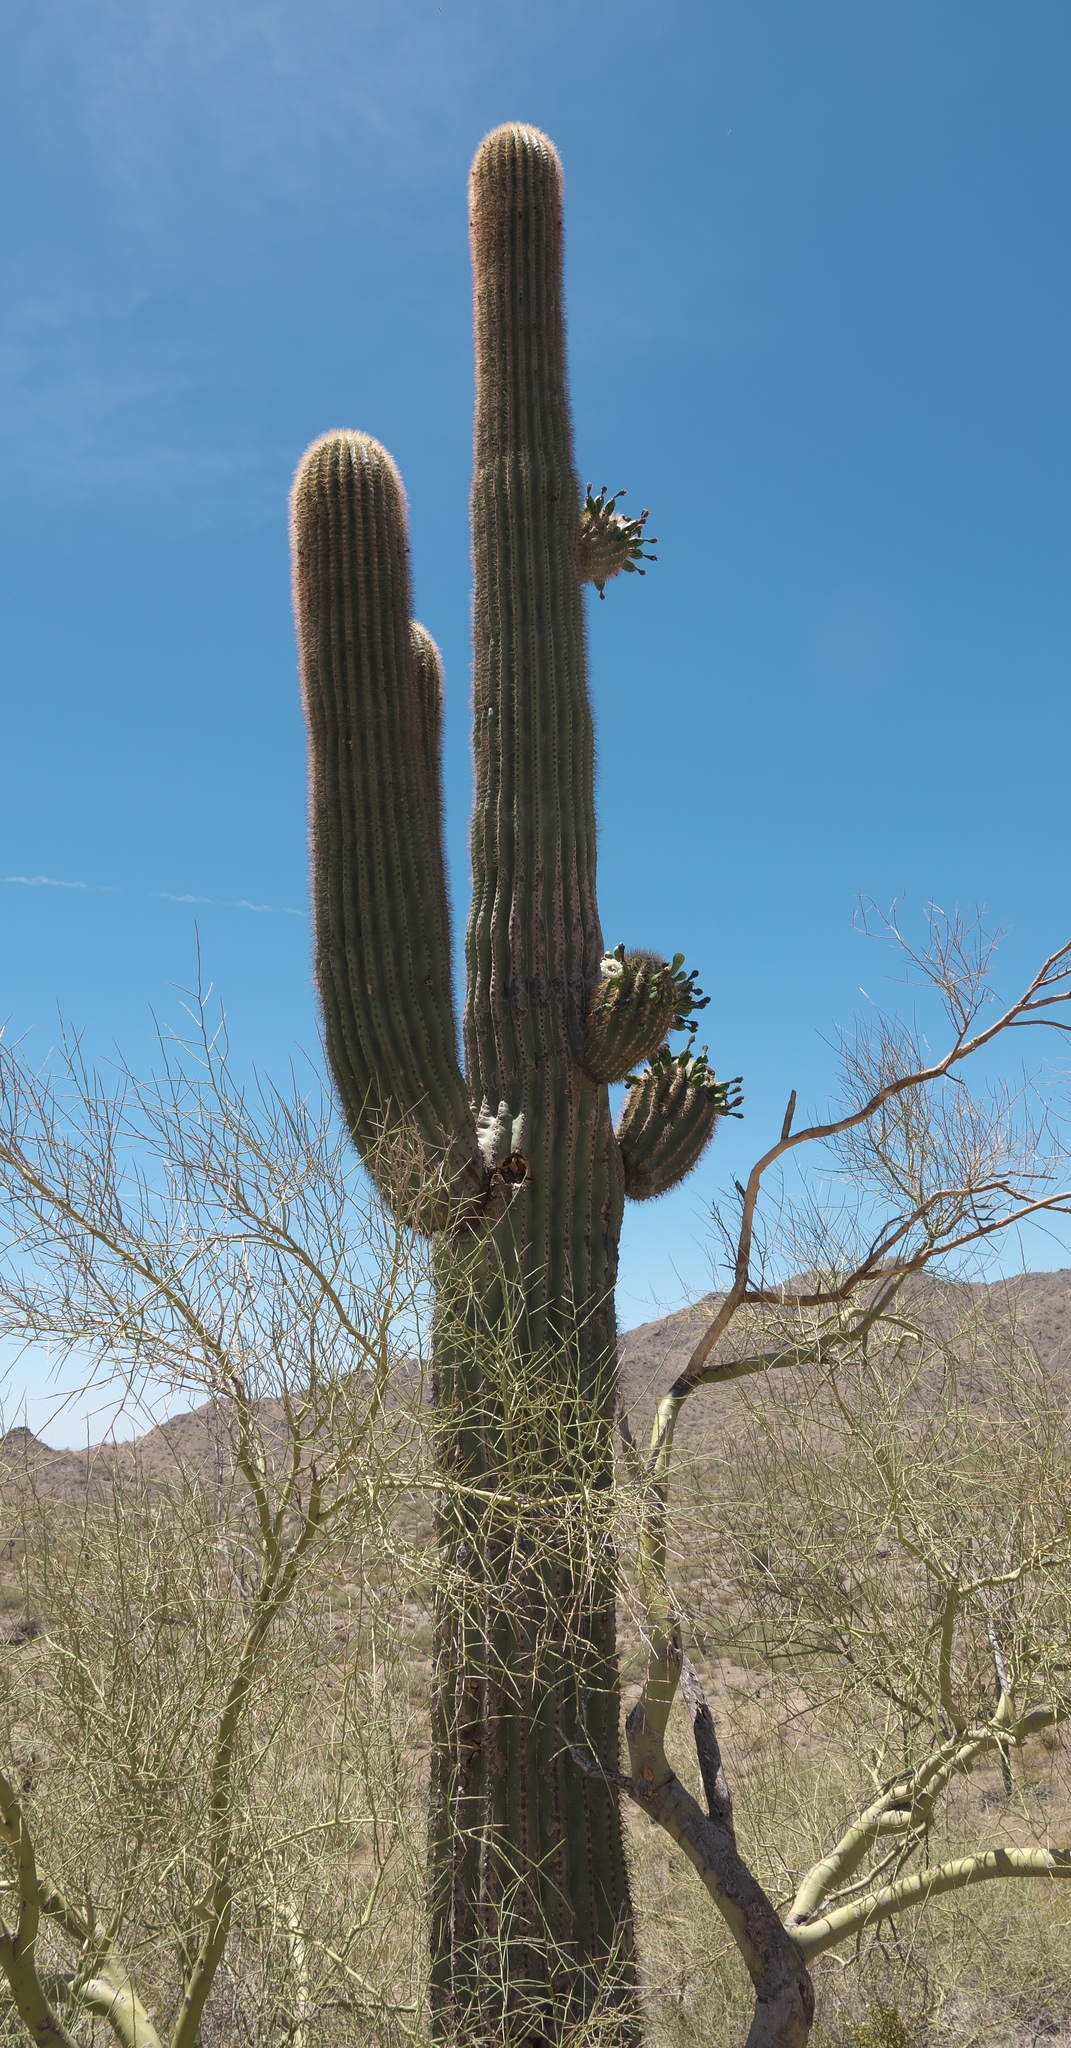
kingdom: Plantae
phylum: Tracheophyta
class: Magnoliopsida
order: Caryophyllales
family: Cactaceae
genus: Carnegiea
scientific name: Carnegiea gigantea
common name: Saguaro
